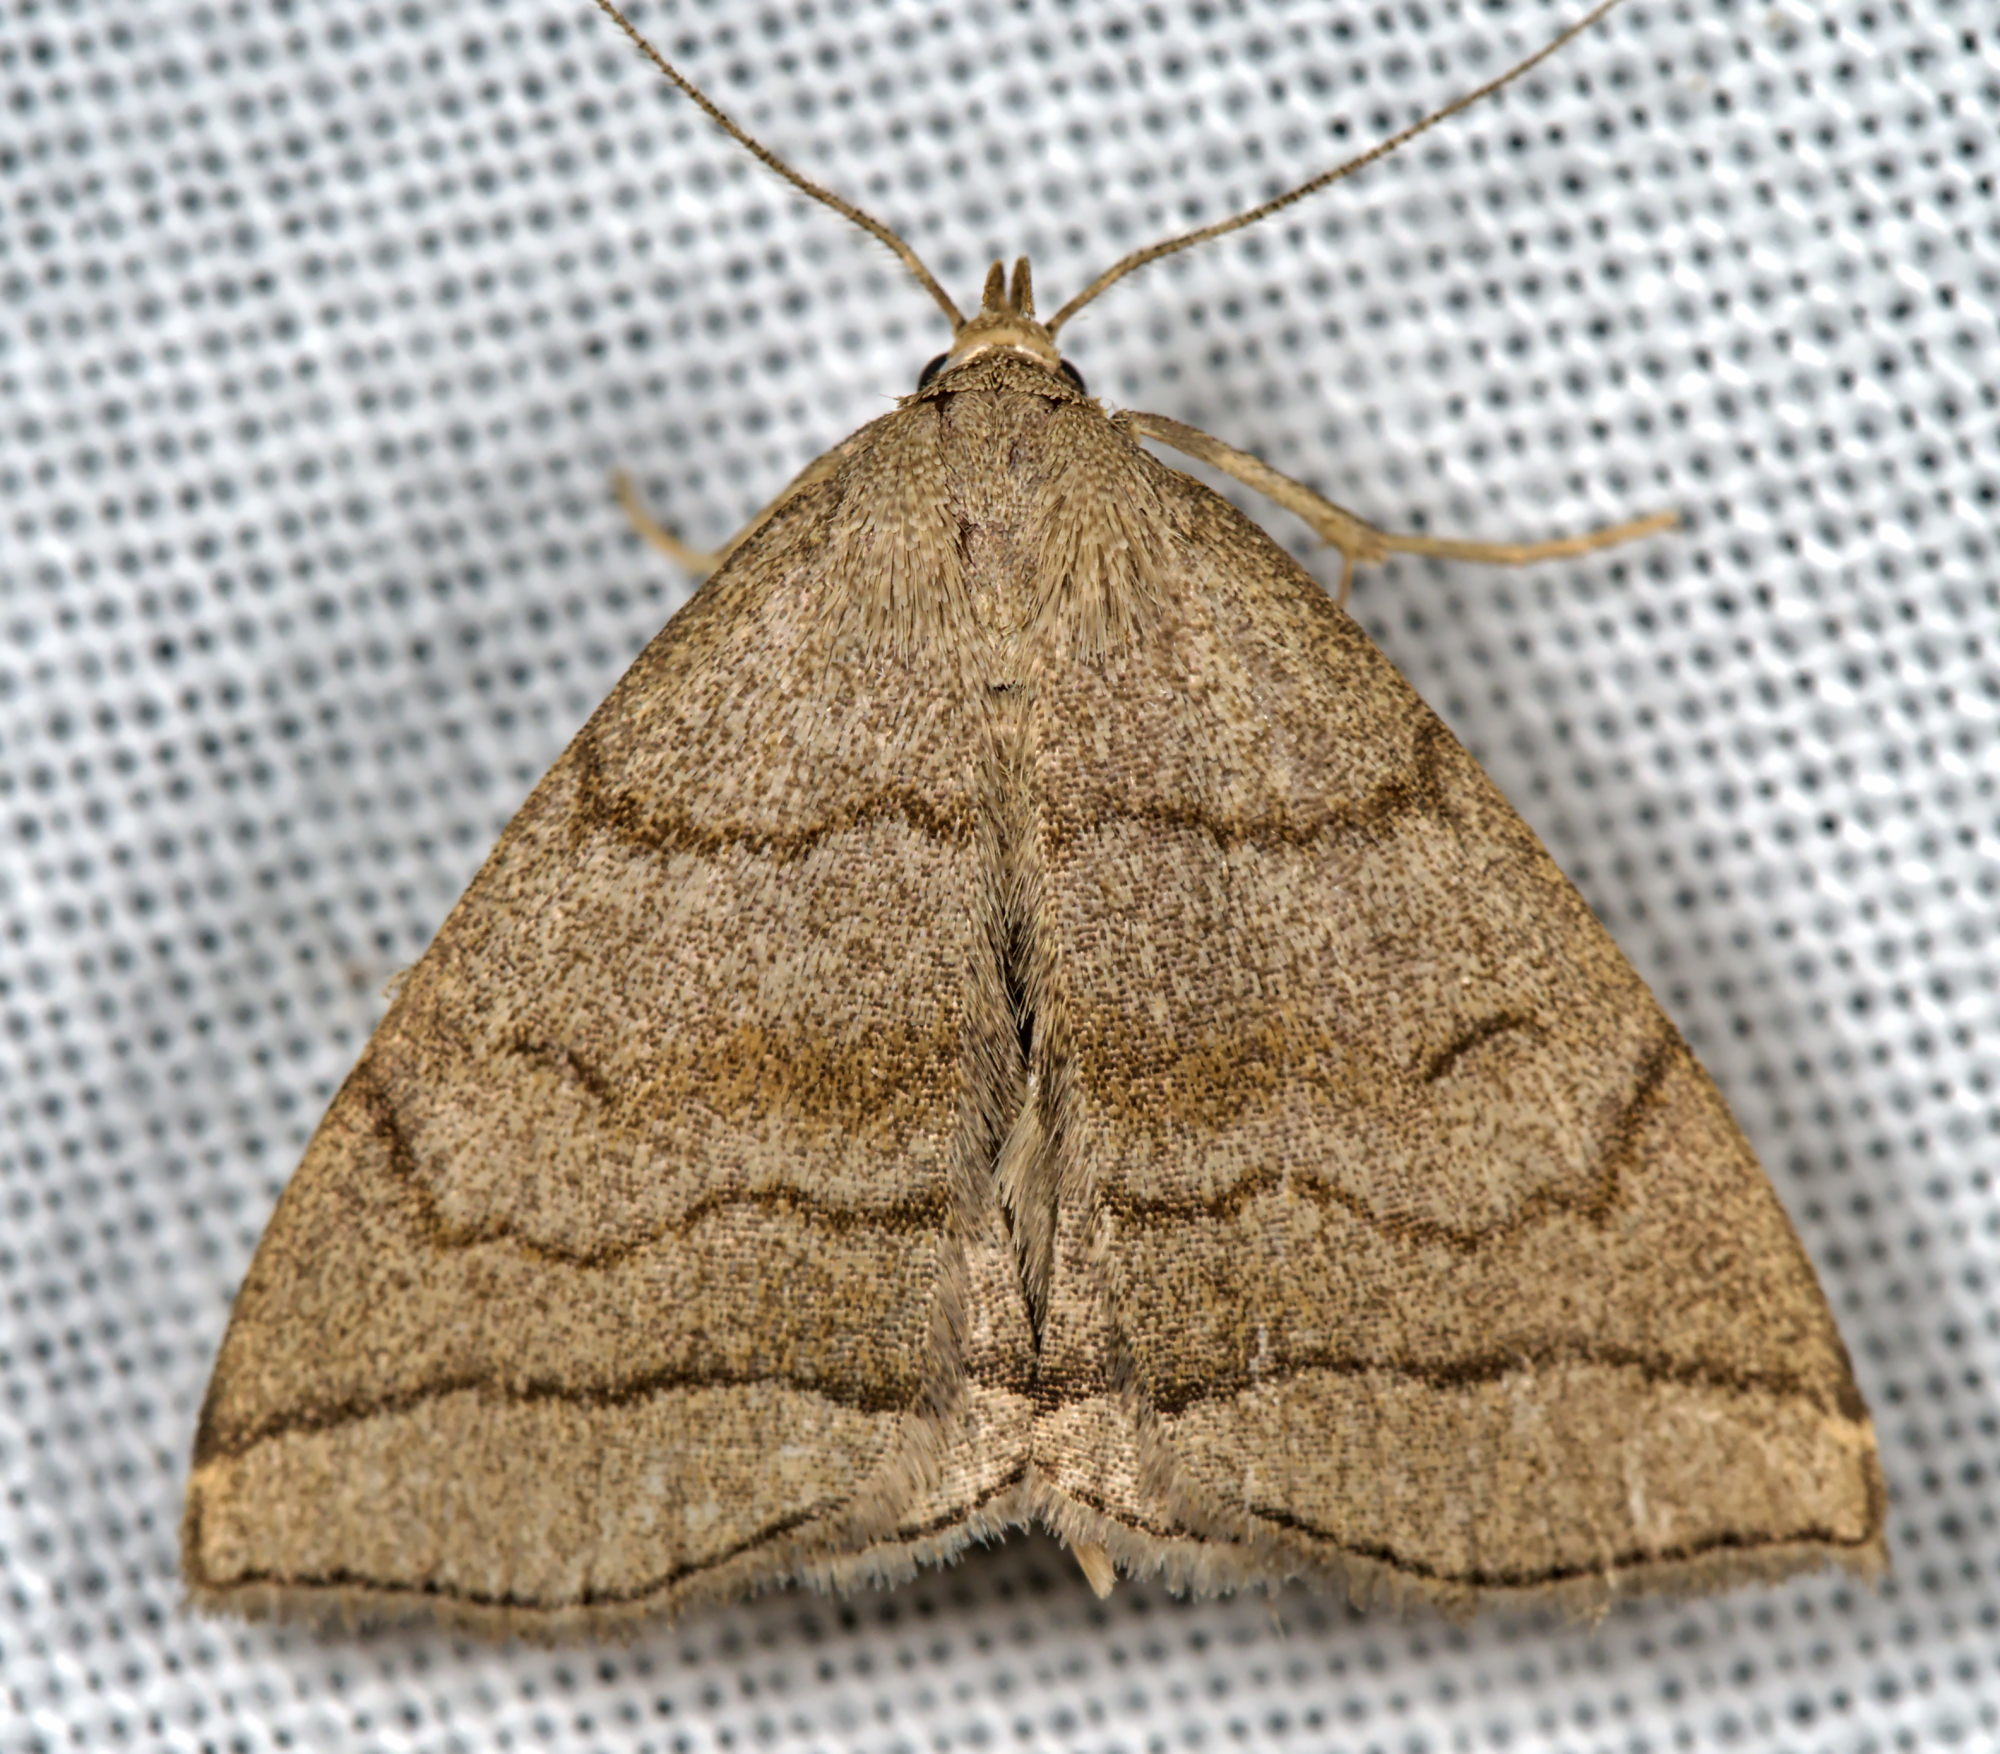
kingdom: Animalia
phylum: Arthropoda
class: Insecta
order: Lepidoptera
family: Erebidae
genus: Herminia
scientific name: Herminia tarsicrinalis
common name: Shaded fan-foot
